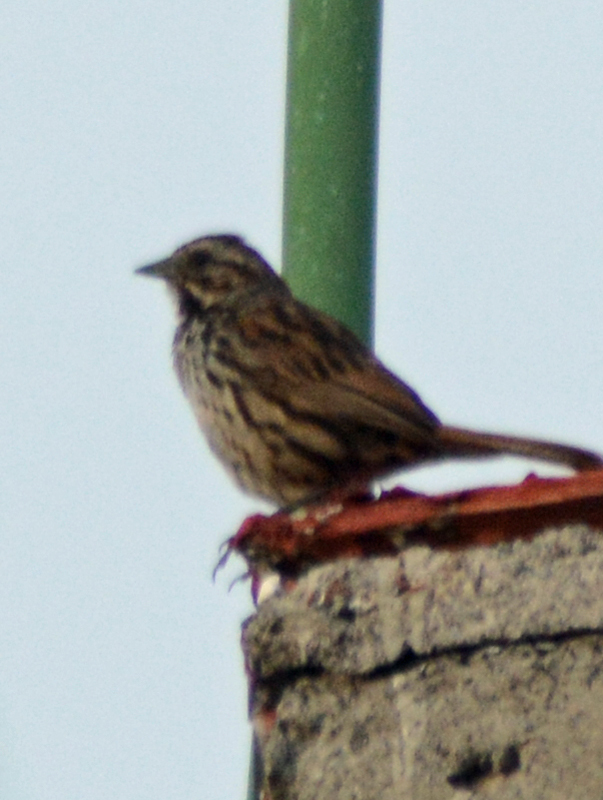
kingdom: Animalia
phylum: Chordata
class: Aves
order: Passeriformes
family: Passerellidae
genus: Melospiza
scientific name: Melospiza melodia
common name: Song sparrow
